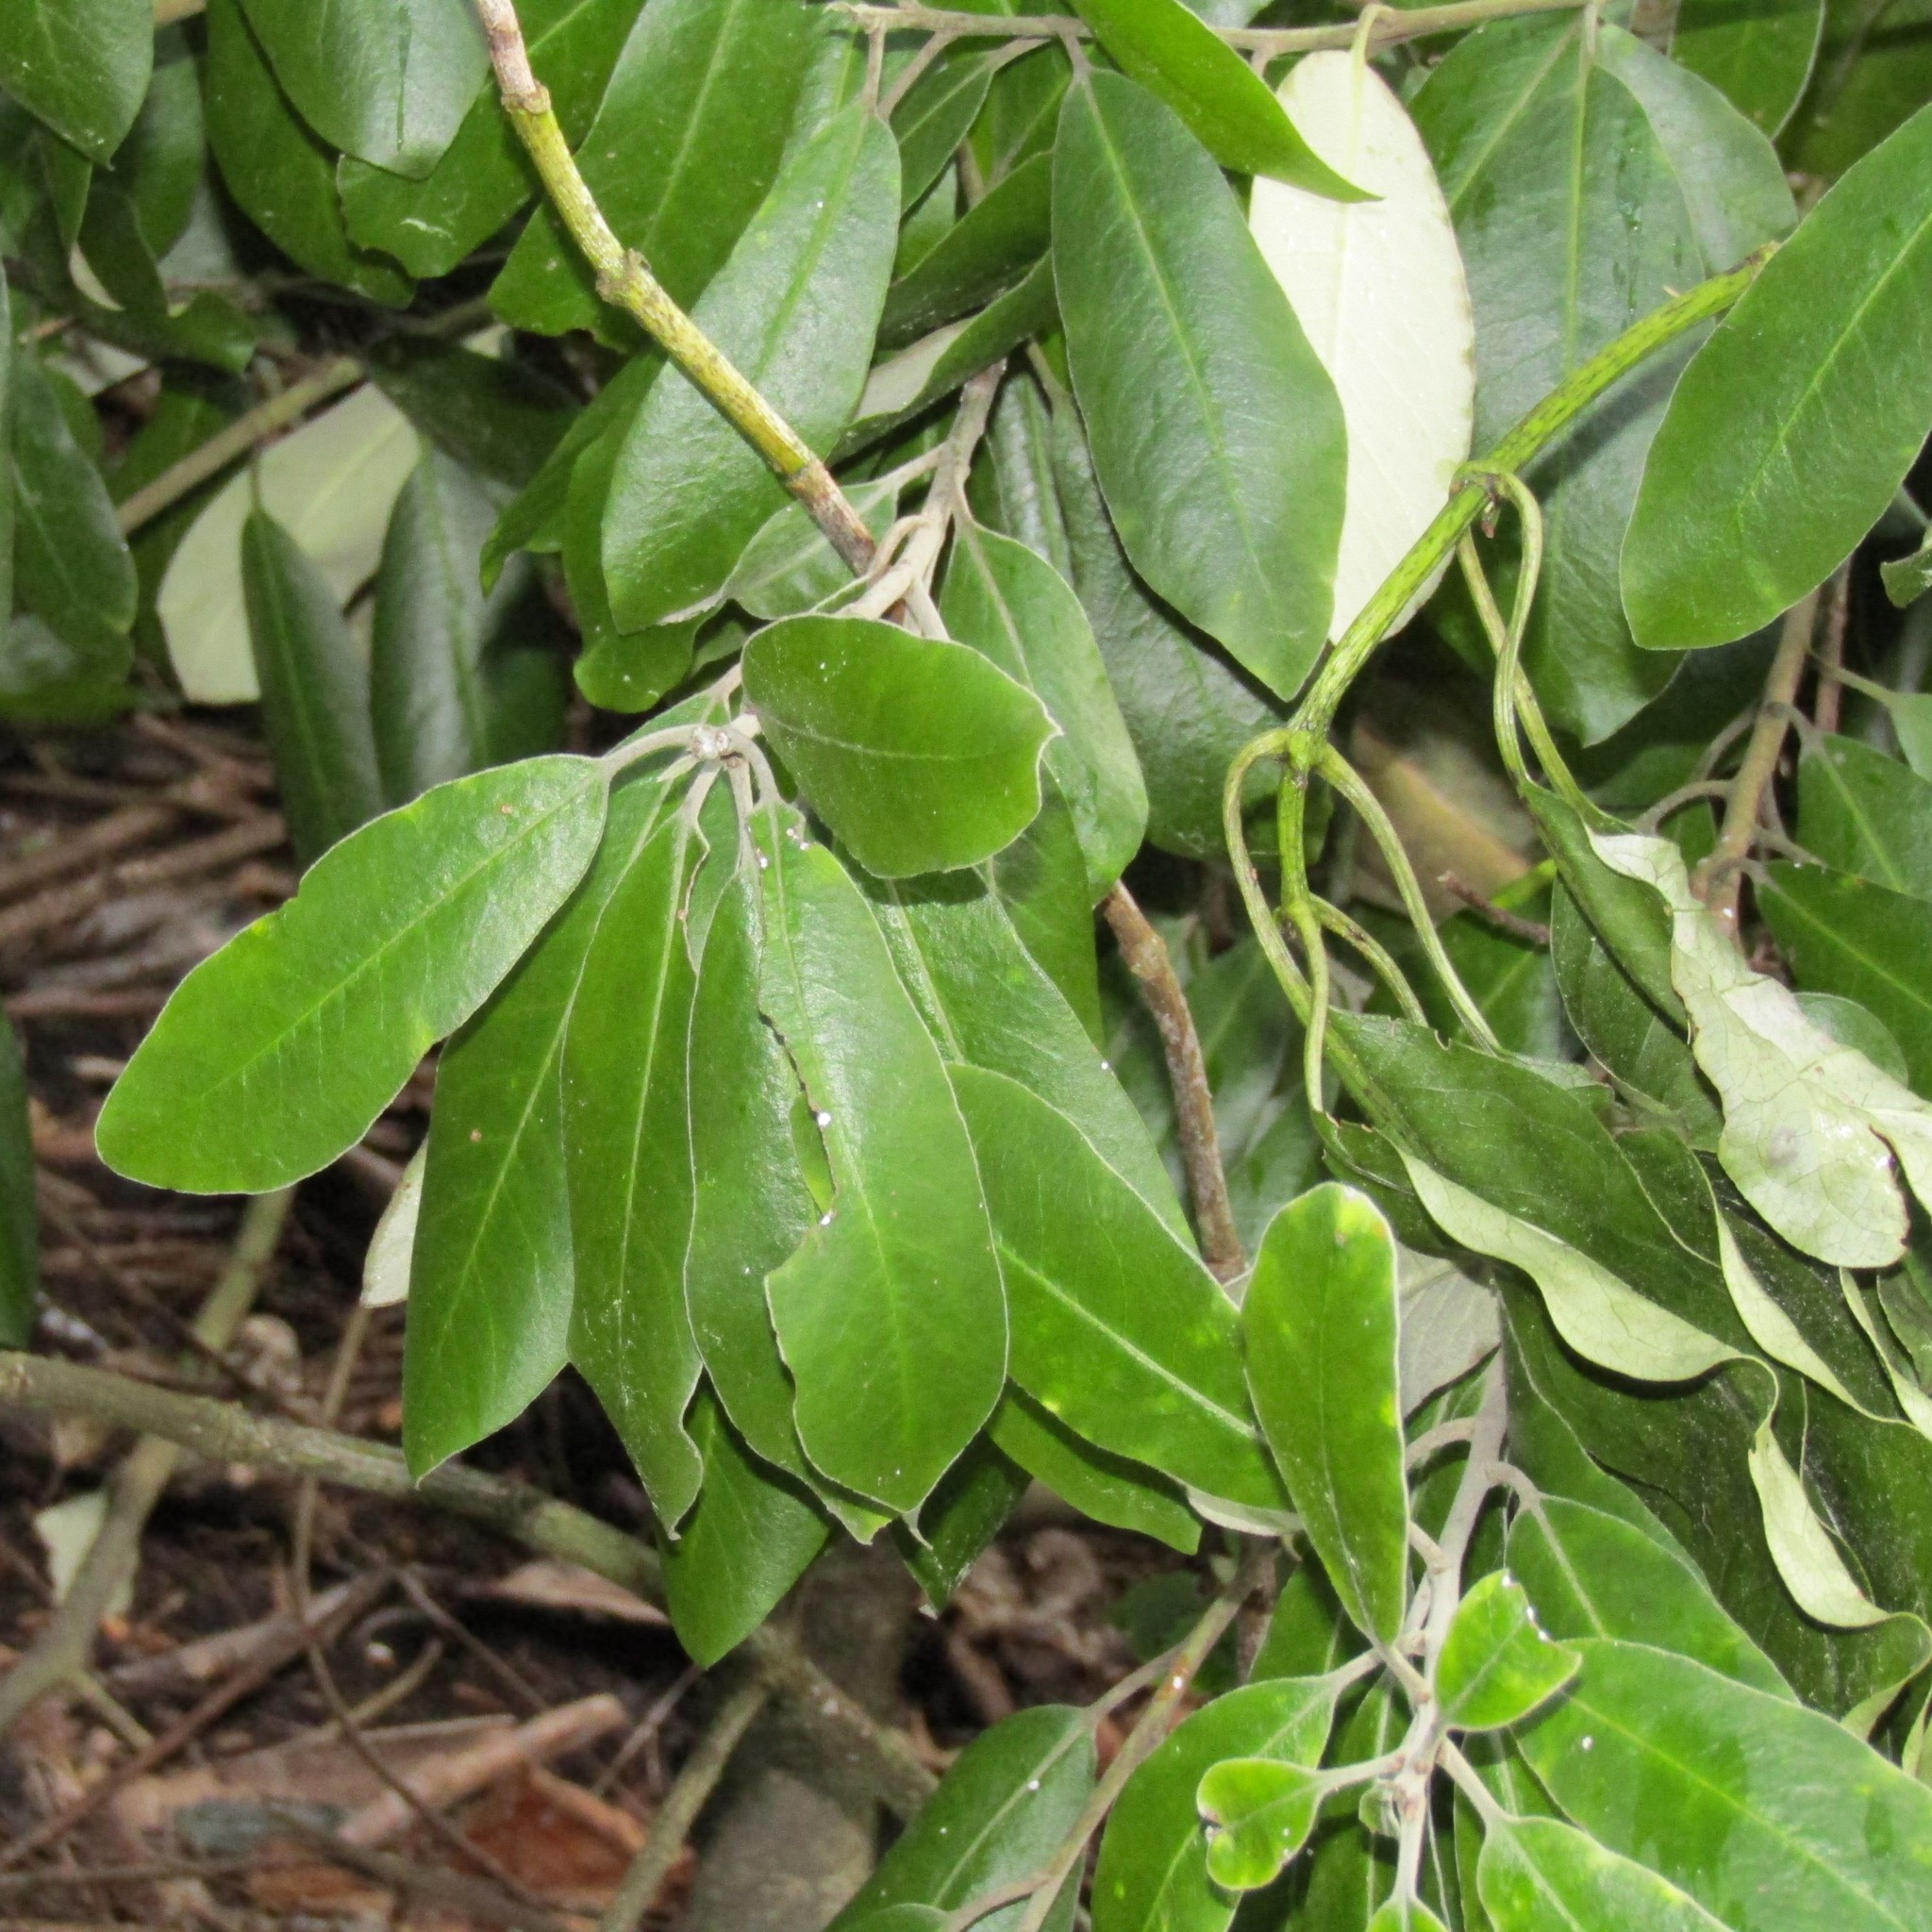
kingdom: Plantae
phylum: Tracheophyta
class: Magnoliopsida
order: Apiales
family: Pittosporaceae
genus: Pittosporum
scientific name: Pittosporum ralphii
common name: Ralph's desertwillow
